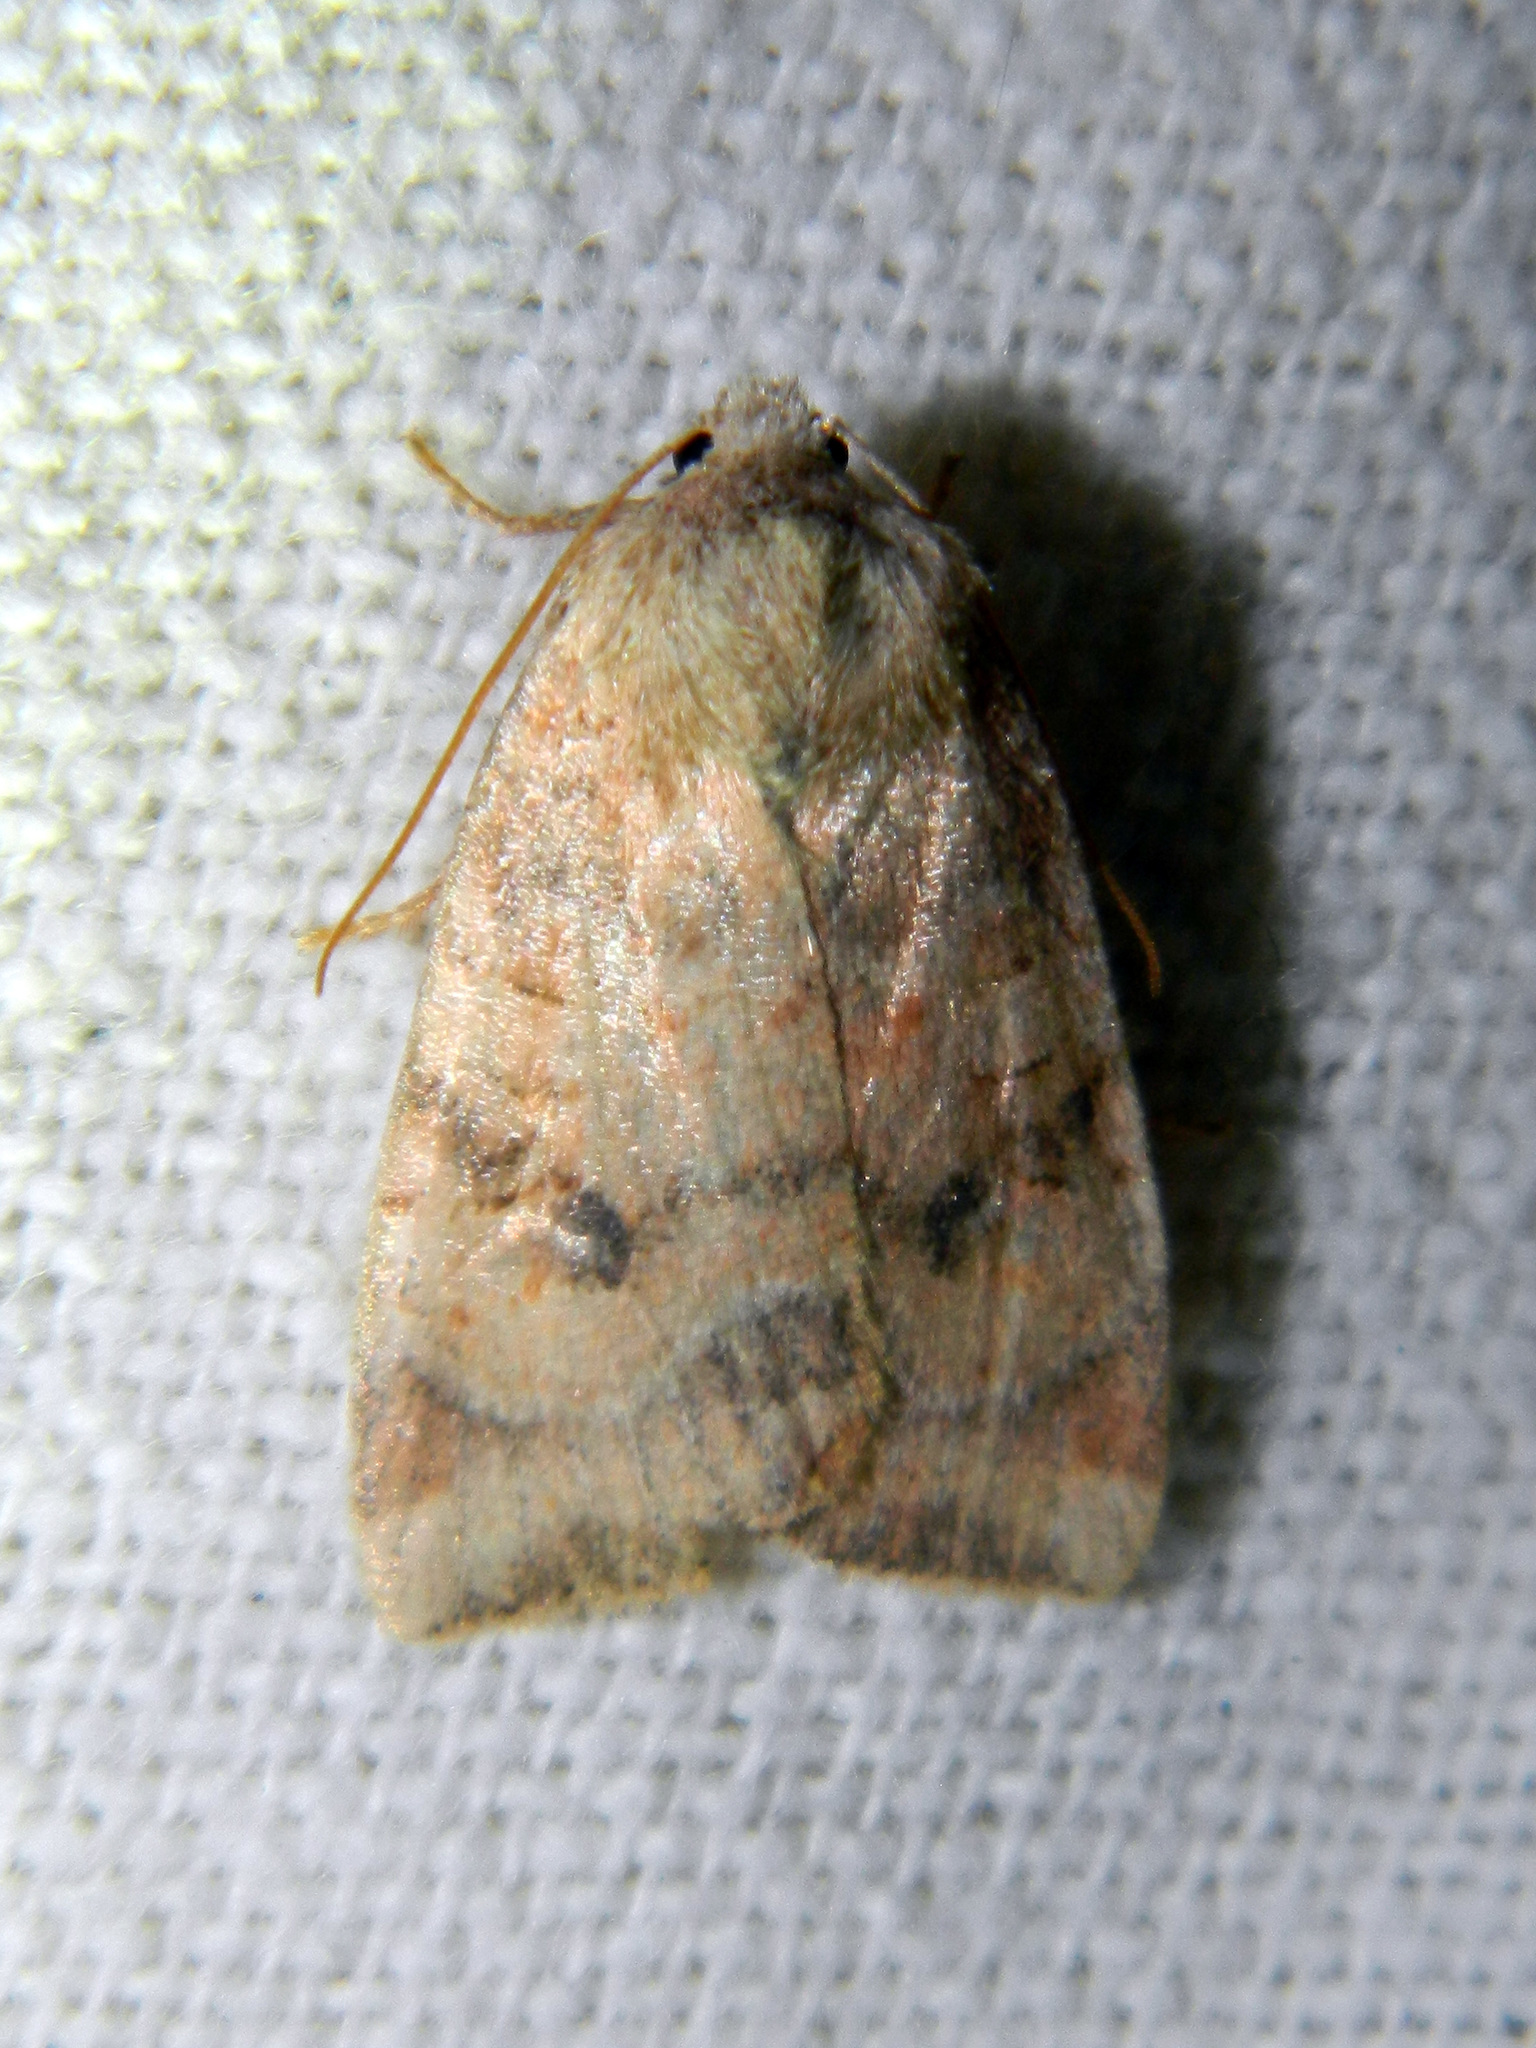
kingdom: Animalia
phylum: Arthropoda
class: Insecta
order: Lepidoptera
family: Noctuidae
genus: Anathix
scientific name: Anathix puta
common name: Puta sallow
